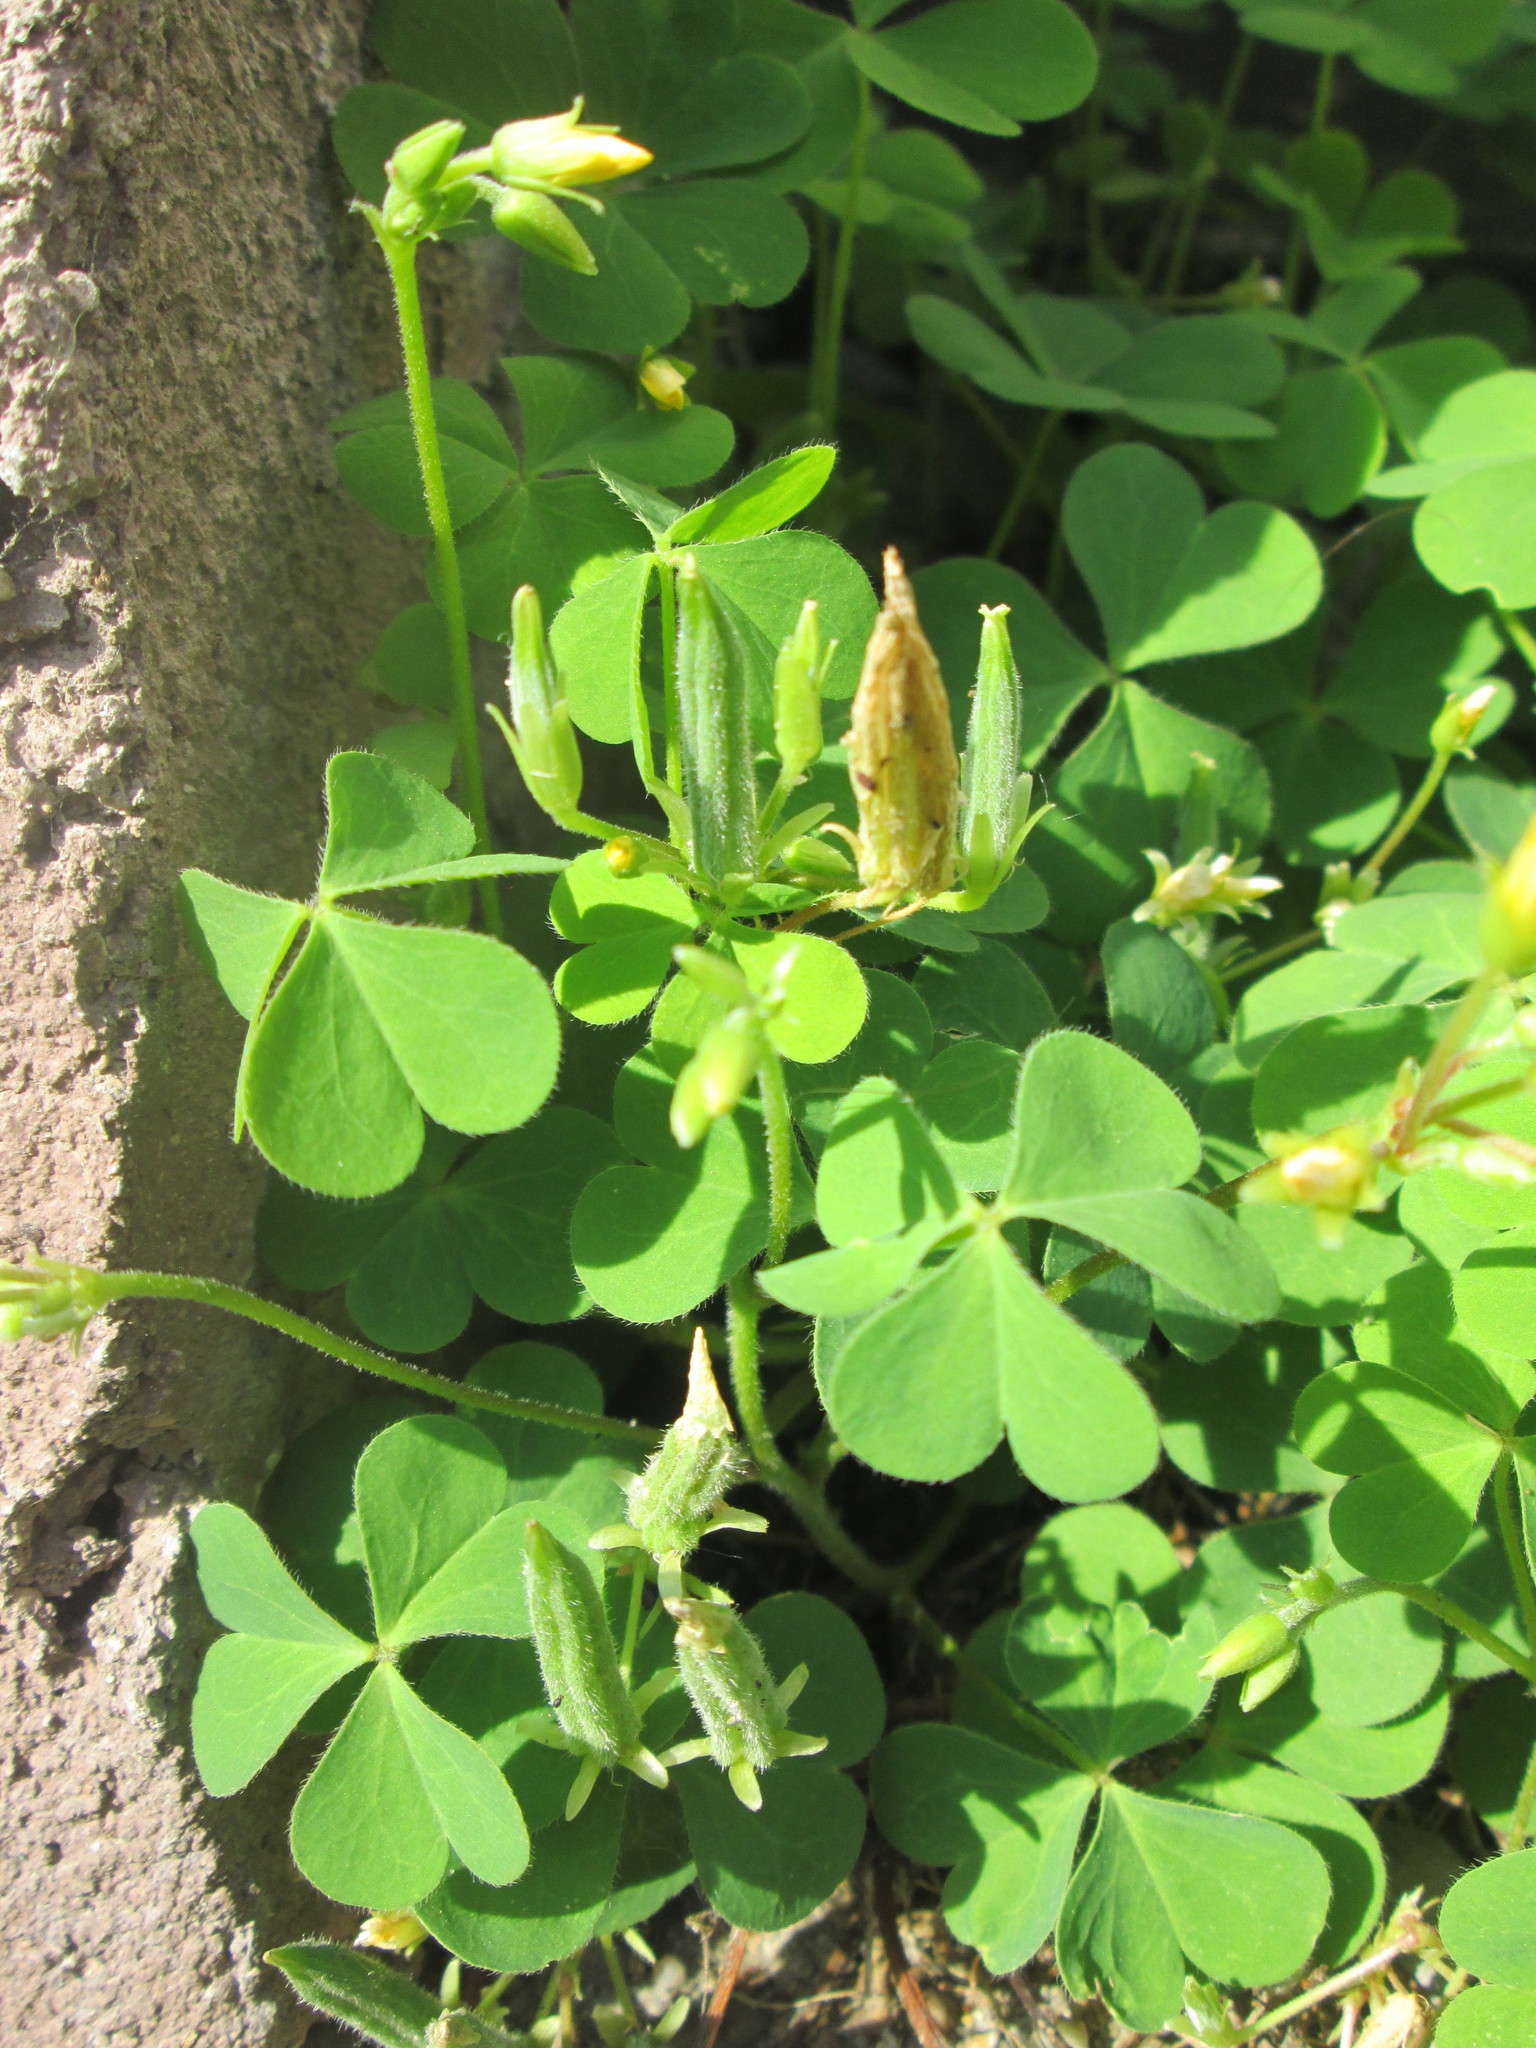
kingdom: Plantae
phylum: Tracheophyta
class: Magnoliopsida
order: Oxalidales
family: Oxalidaceae
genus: Oxalis
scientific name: Oxalis stricta
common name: Upright yellow-sorrel
